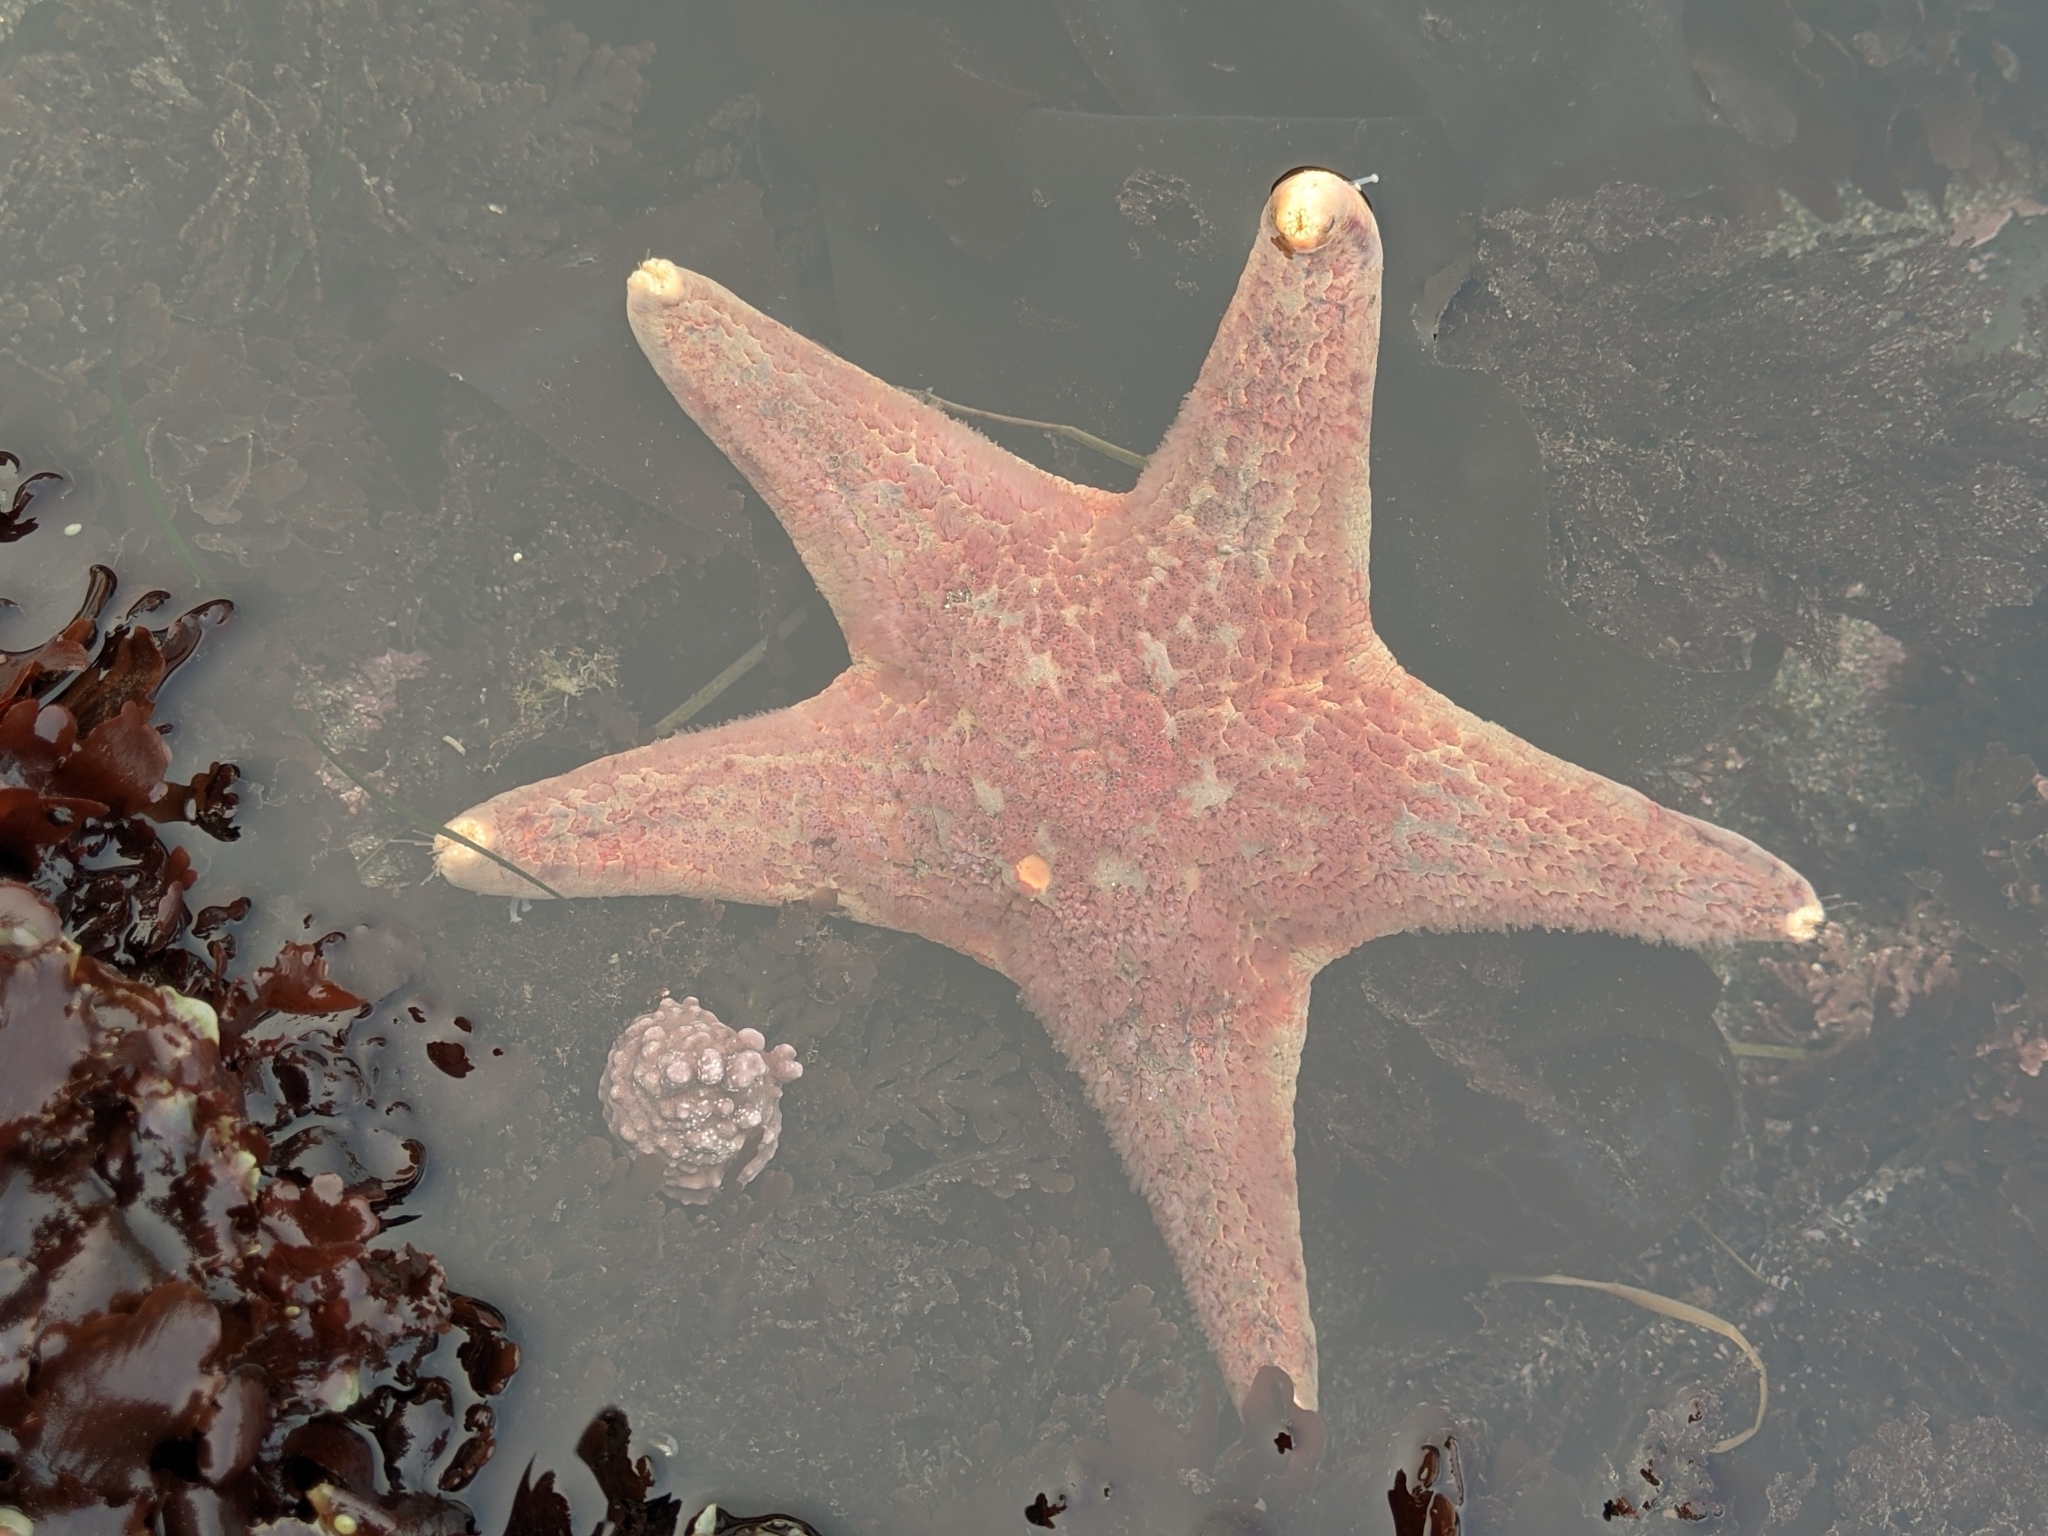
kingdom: Animalia
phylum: Echinodermata
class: Asteroidea
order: Valvatida
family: Asteropseidae
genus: Dermasterias
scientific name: Dermasterias imbricata
